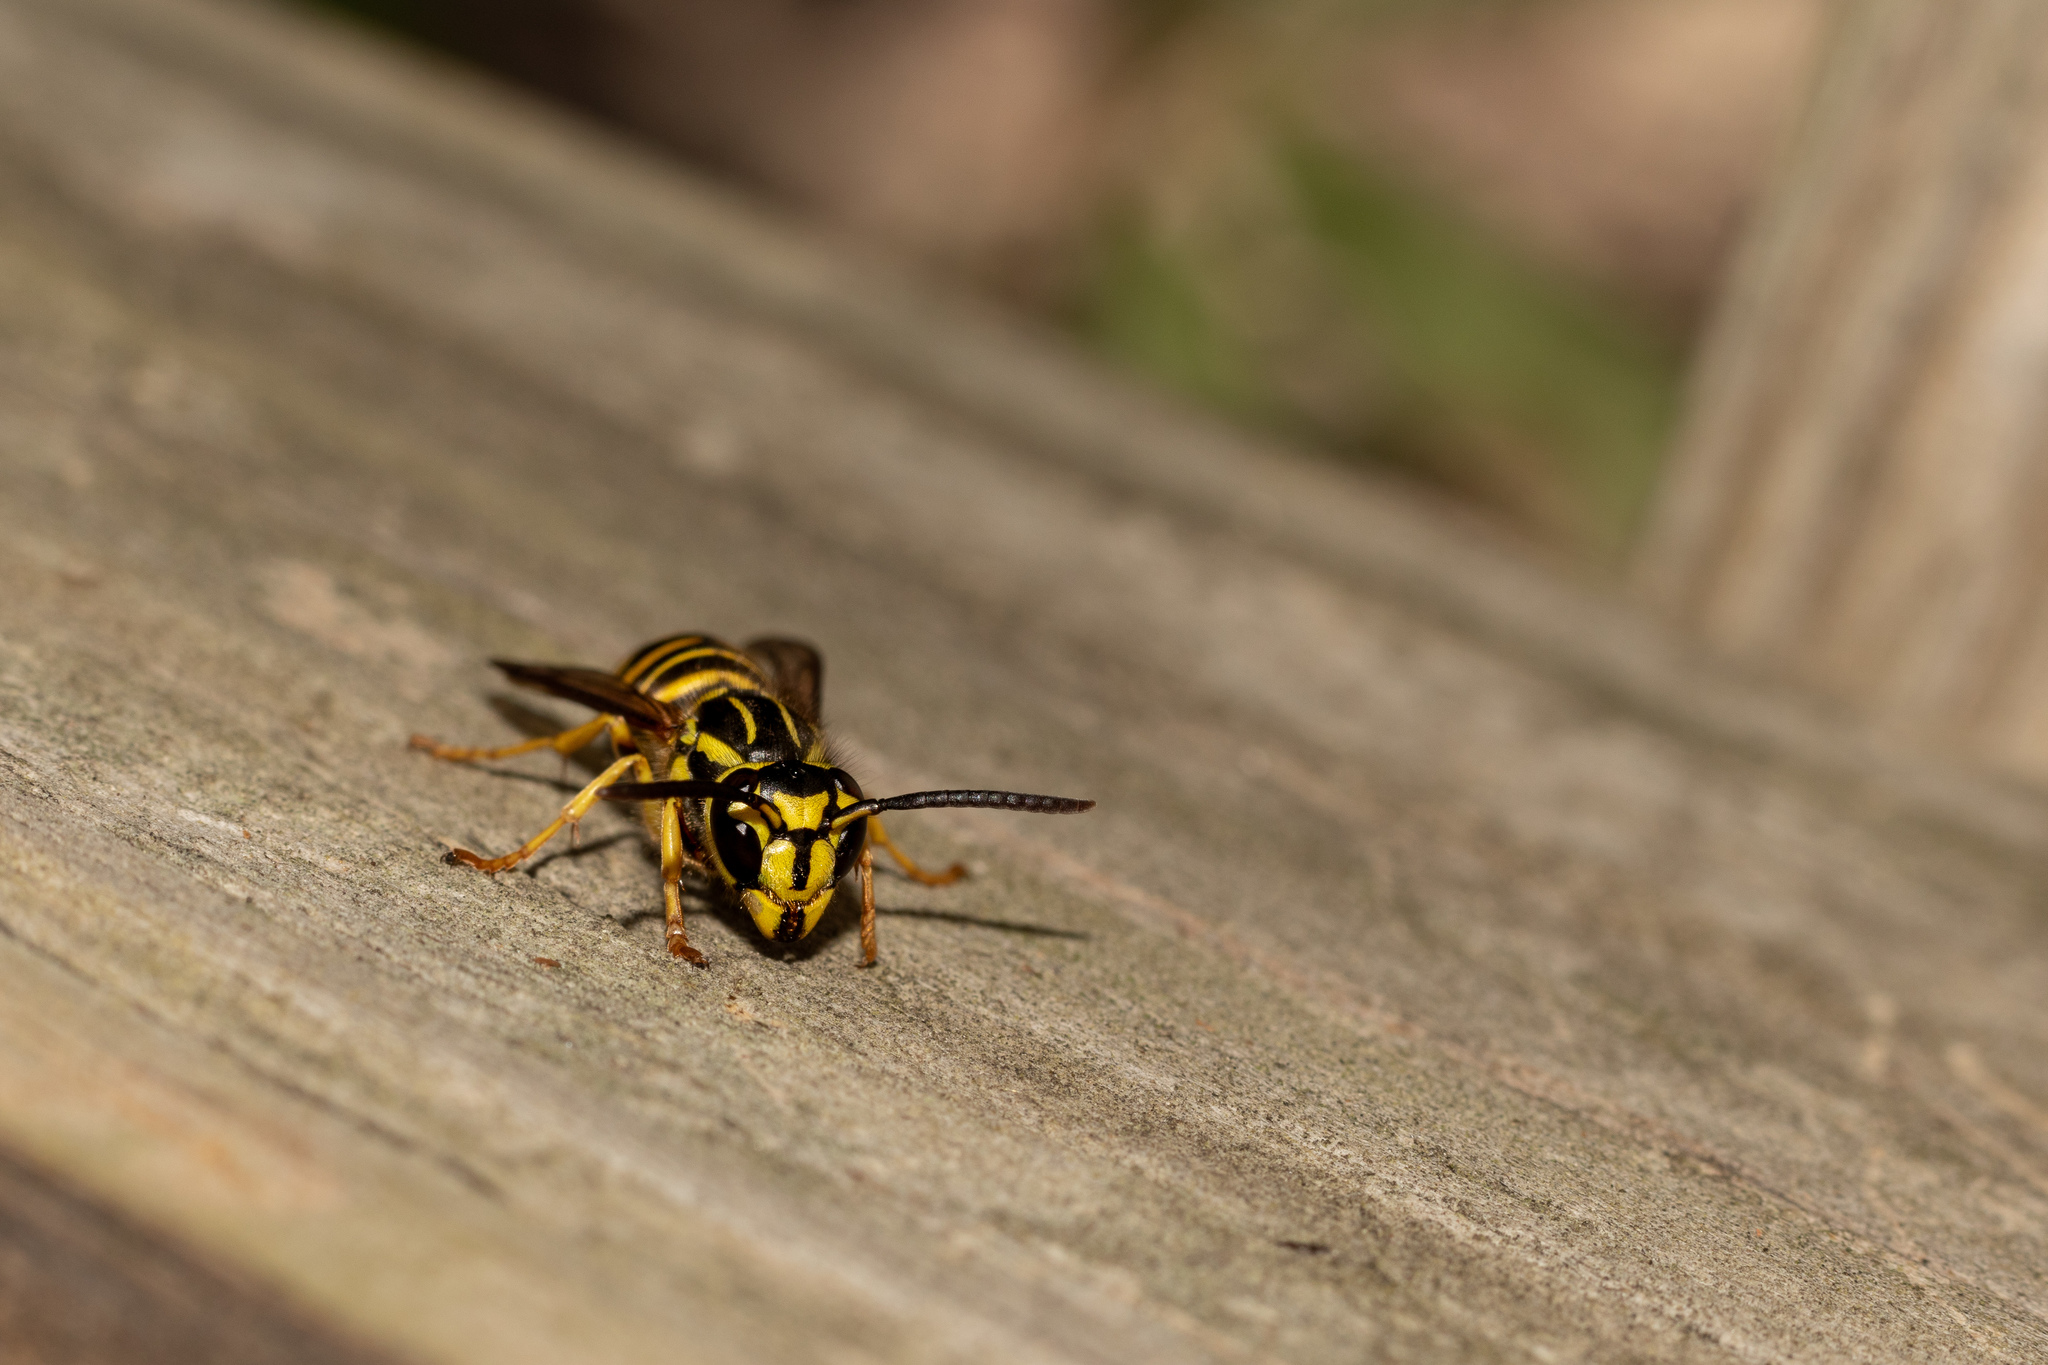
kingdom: Animalia
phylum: Arthropoda
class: Insecta
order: Hymenoptera
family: Vespidae
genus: Vespula
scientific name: Vespula squamosa
